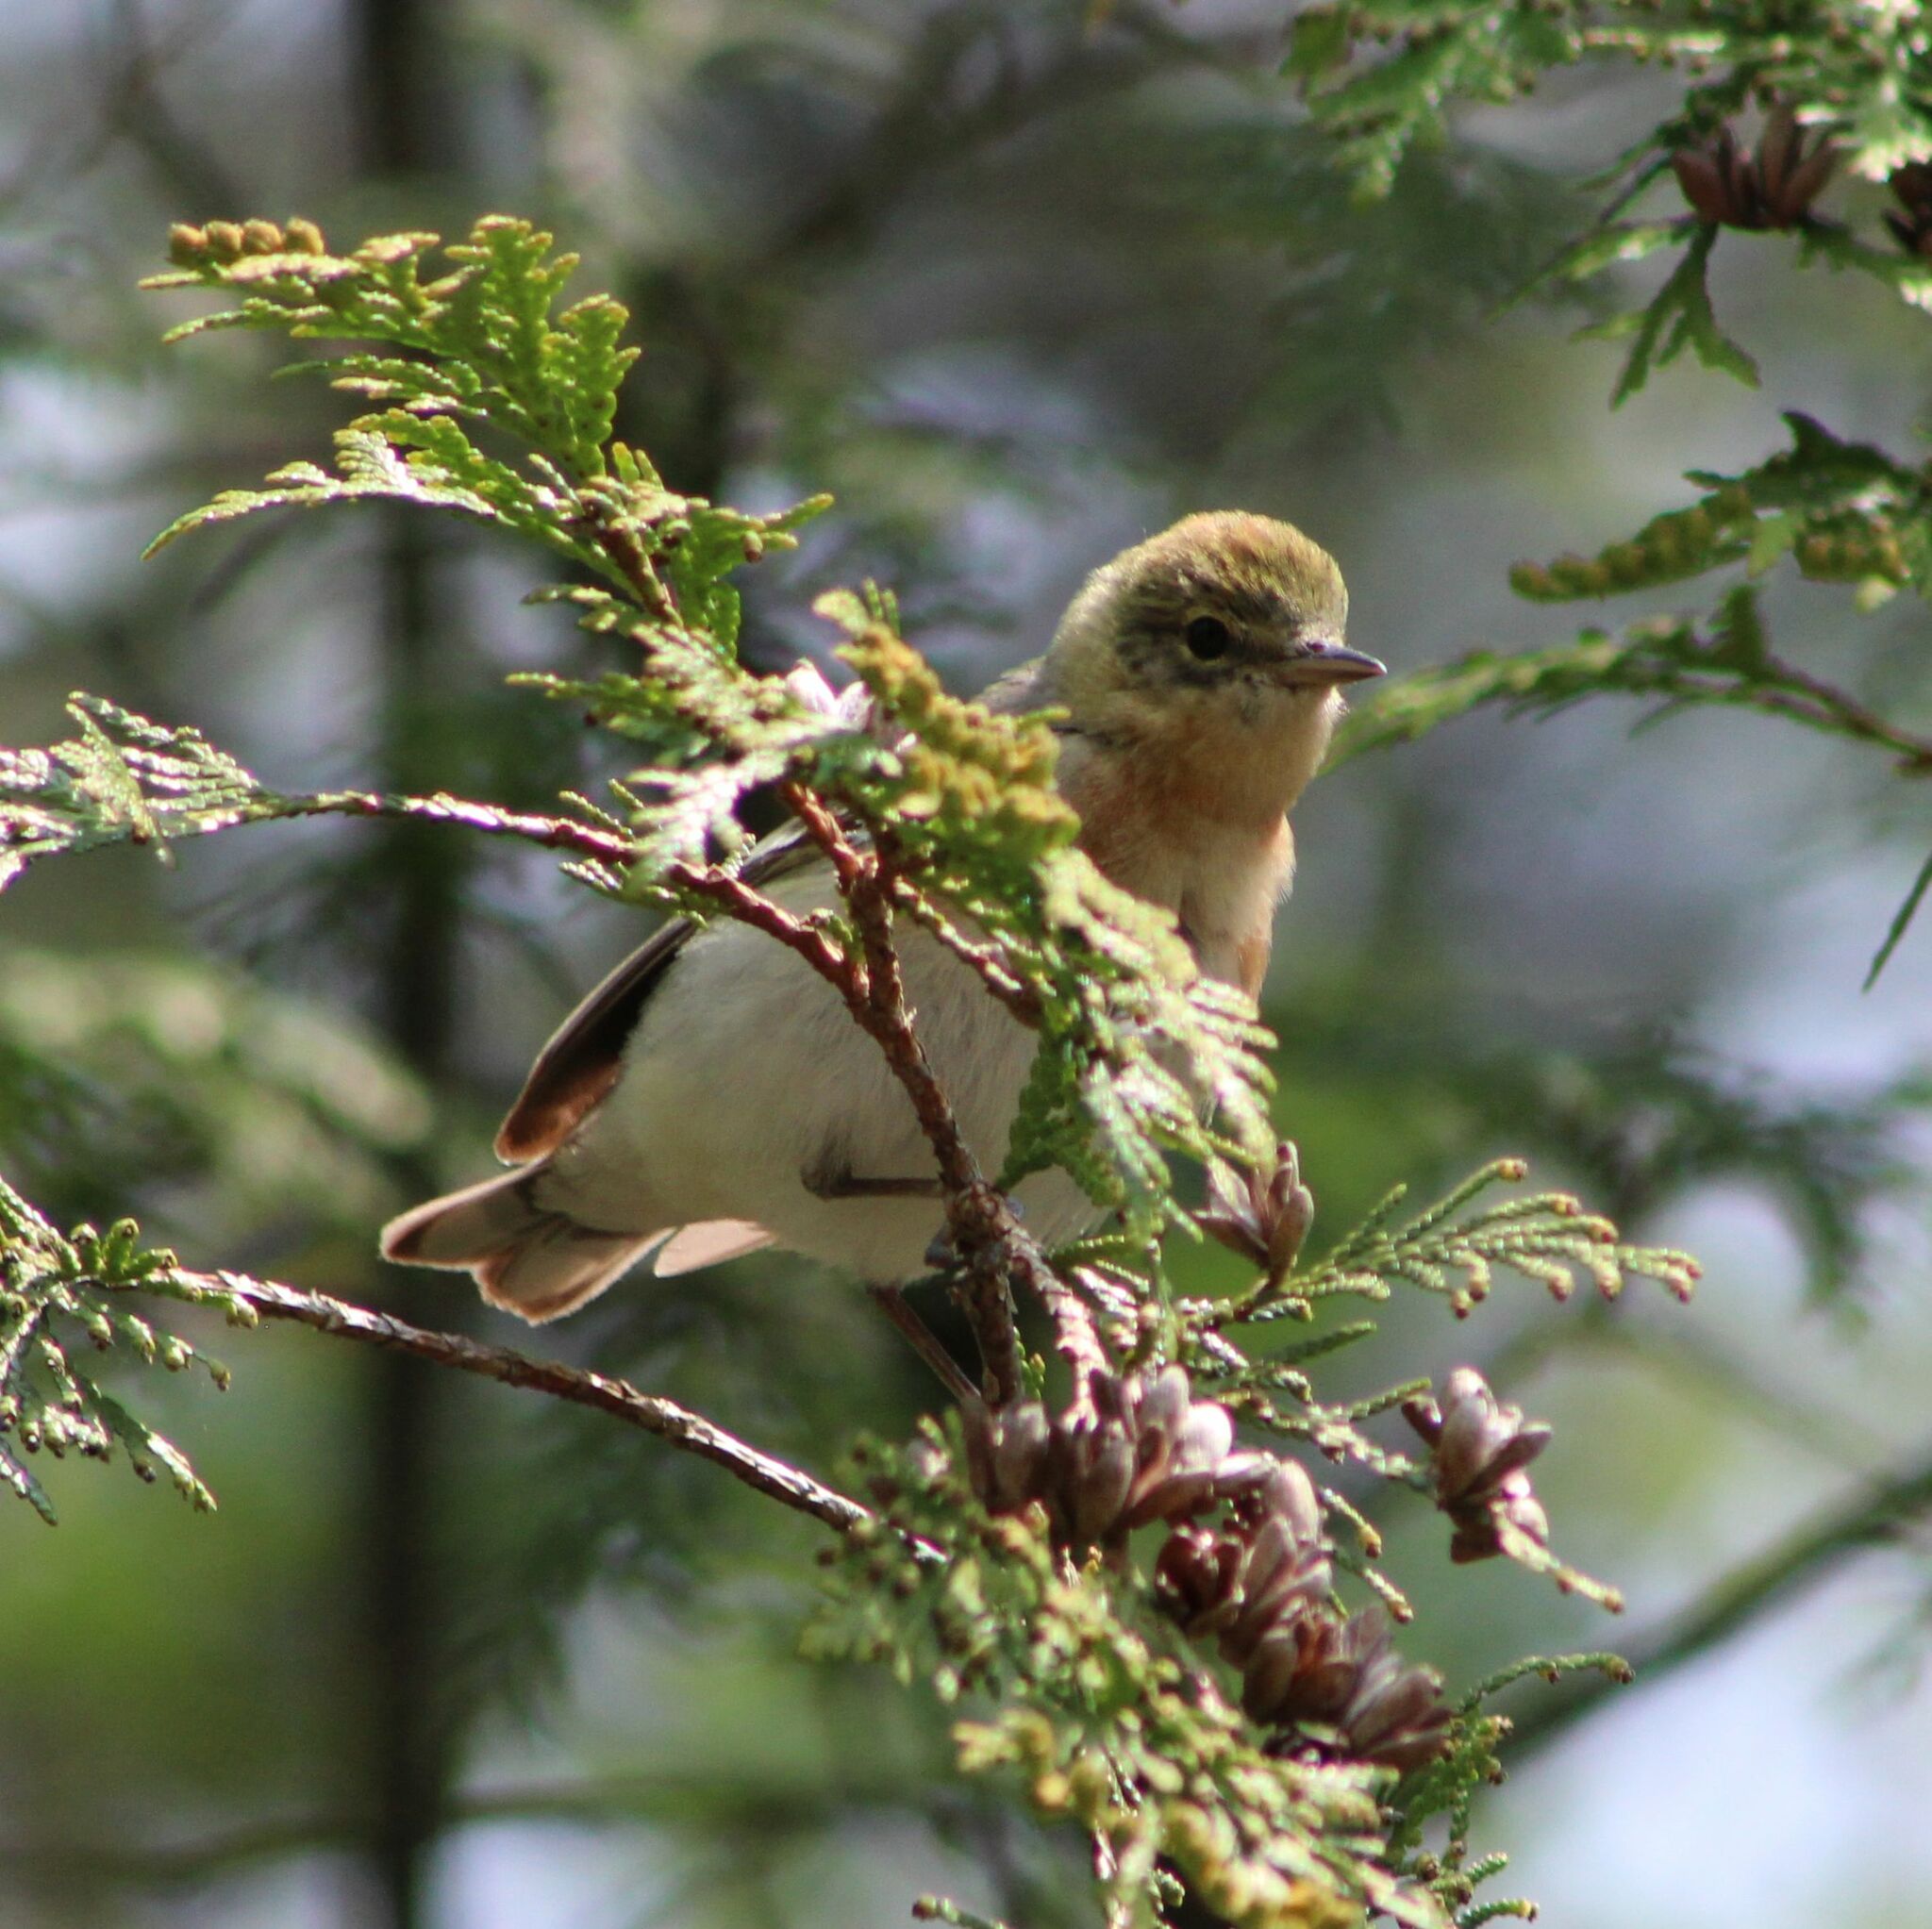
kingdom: Animalia
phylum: Chordata
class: Aves
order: Passeriformes
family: Parulidae
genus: Setophaga
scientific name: Setophaga castanea
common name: Bay-breasted warbler
